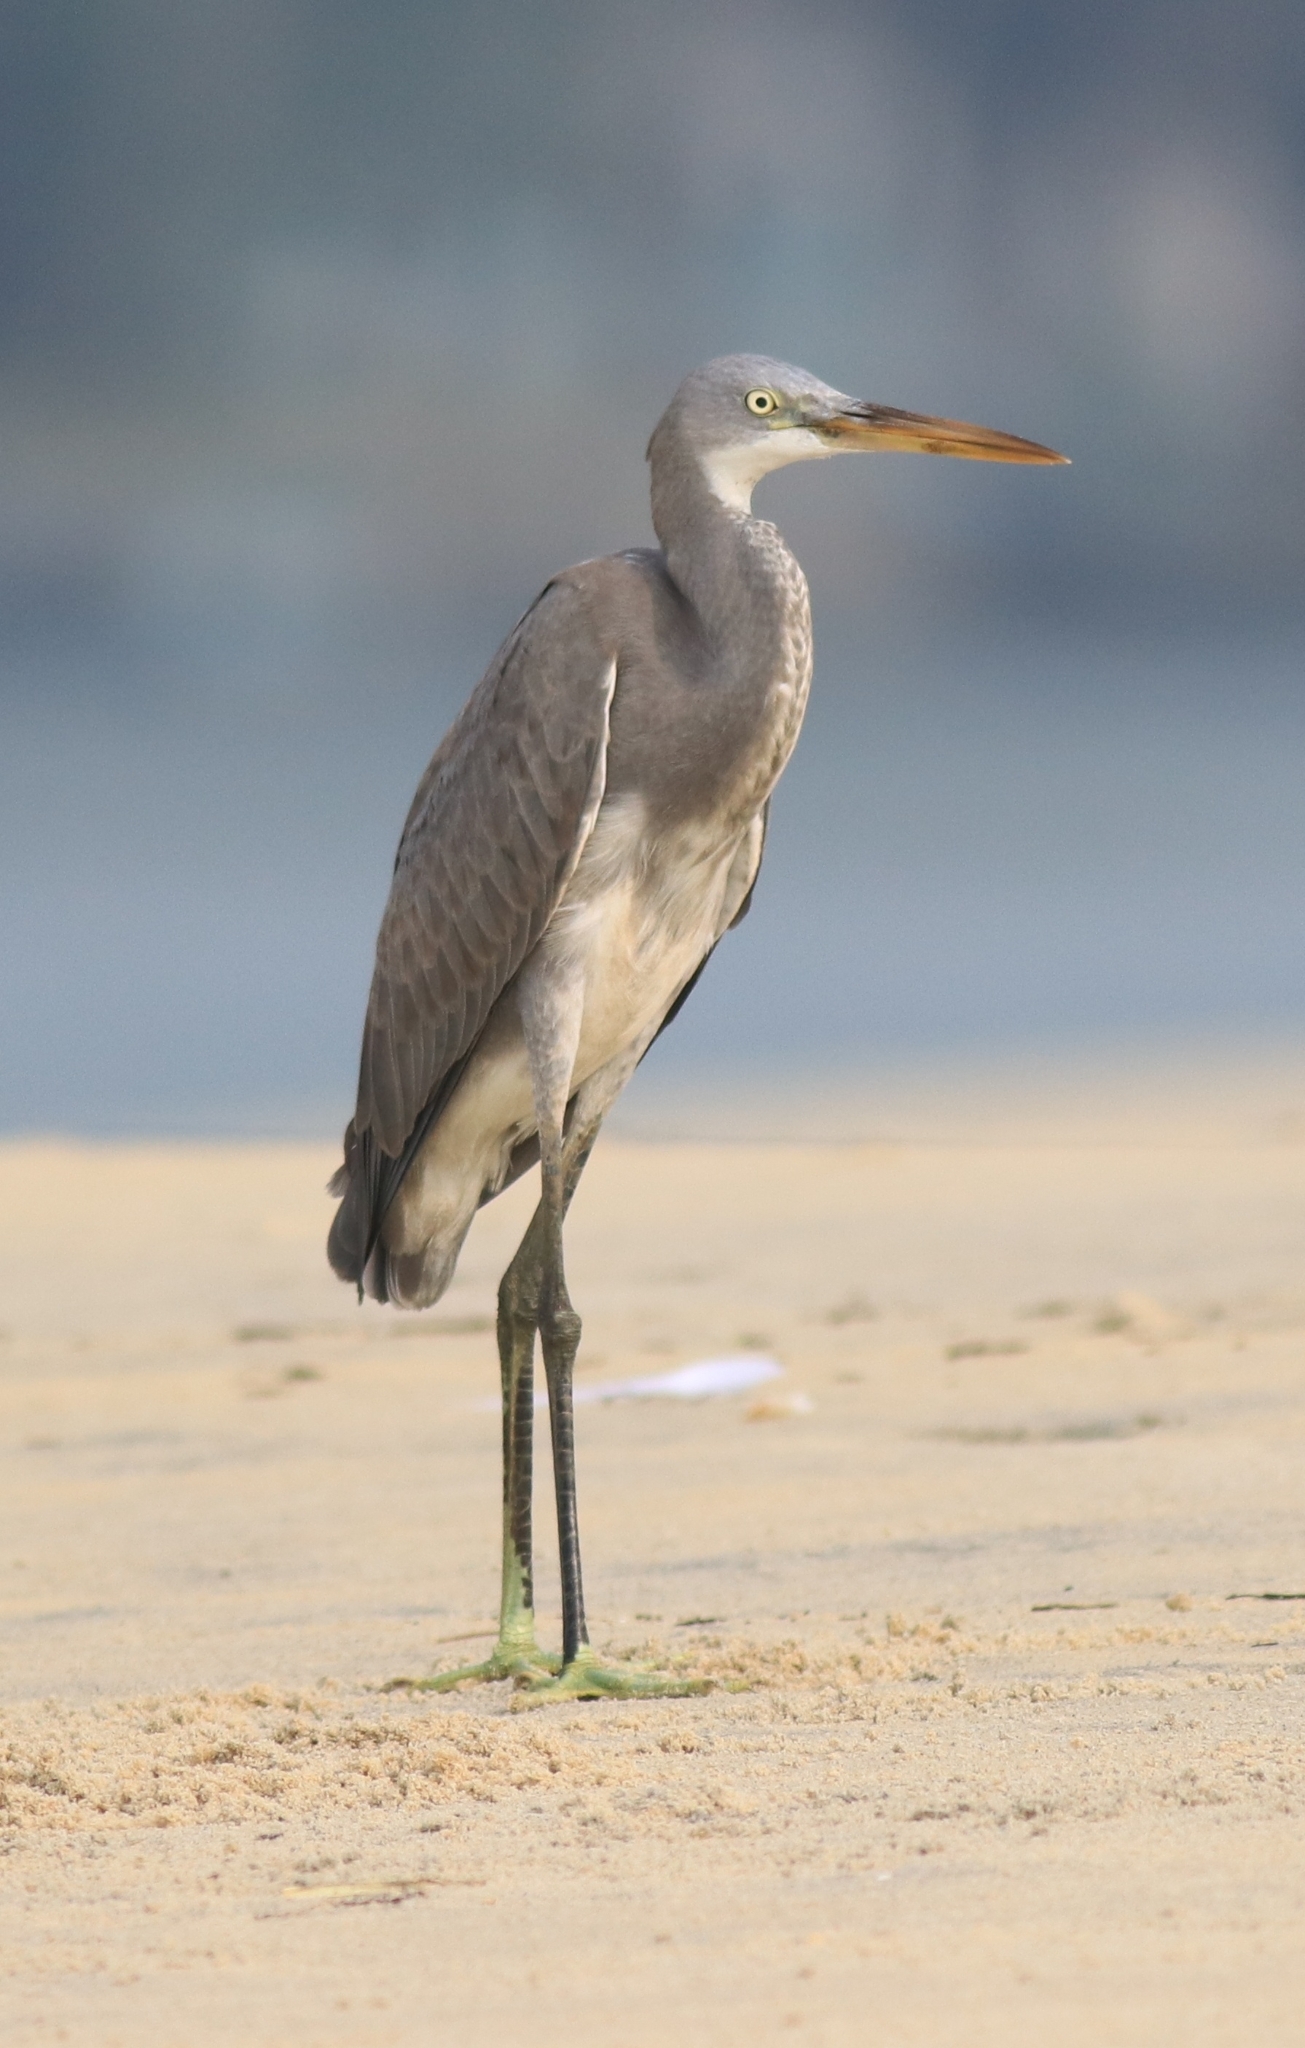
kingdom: Animalia
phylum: Chordata
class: Aves
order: Pelecaniformes
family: Ardeidae
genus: Egretta
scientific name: Egretta gularis
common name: Western reef-heron
